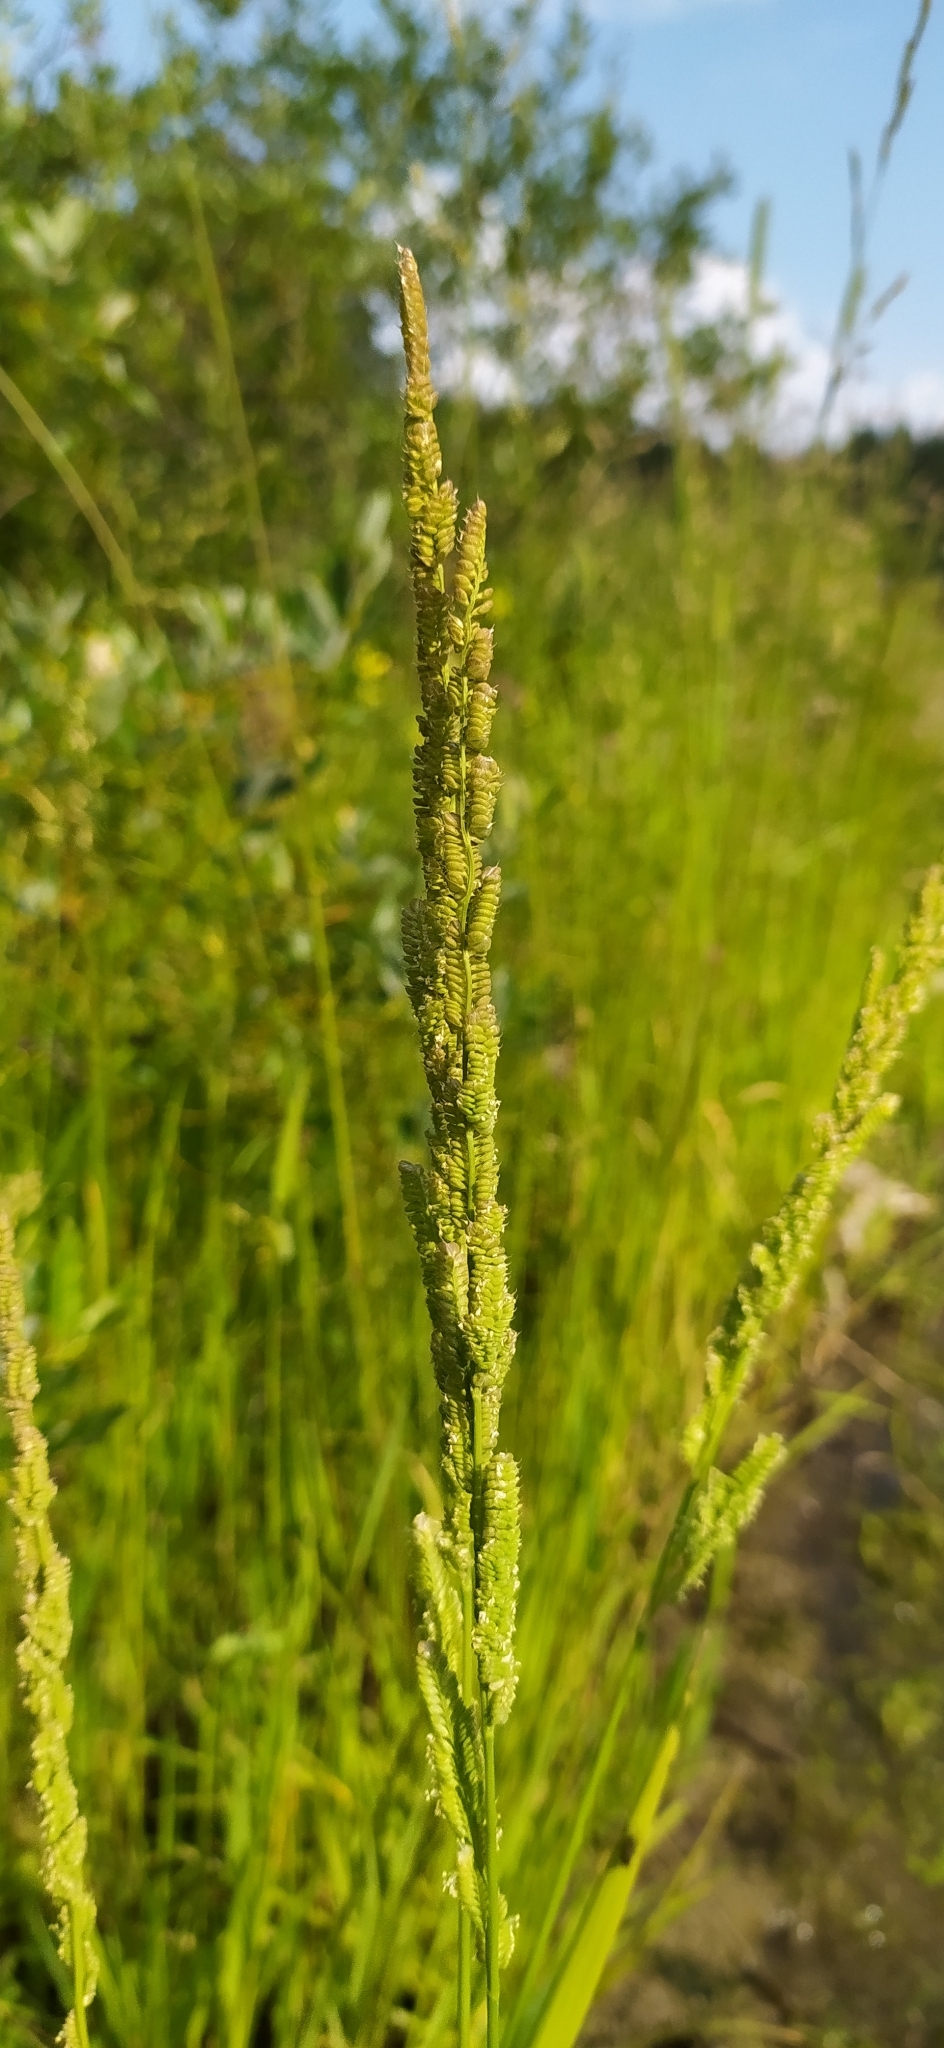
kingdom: Plantae
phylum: Tracheophyta
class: Liliopsida
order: Poales
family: Poaceae
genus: Beckmannia
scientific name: Beckmannia syzigachne
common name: American slough-grass
